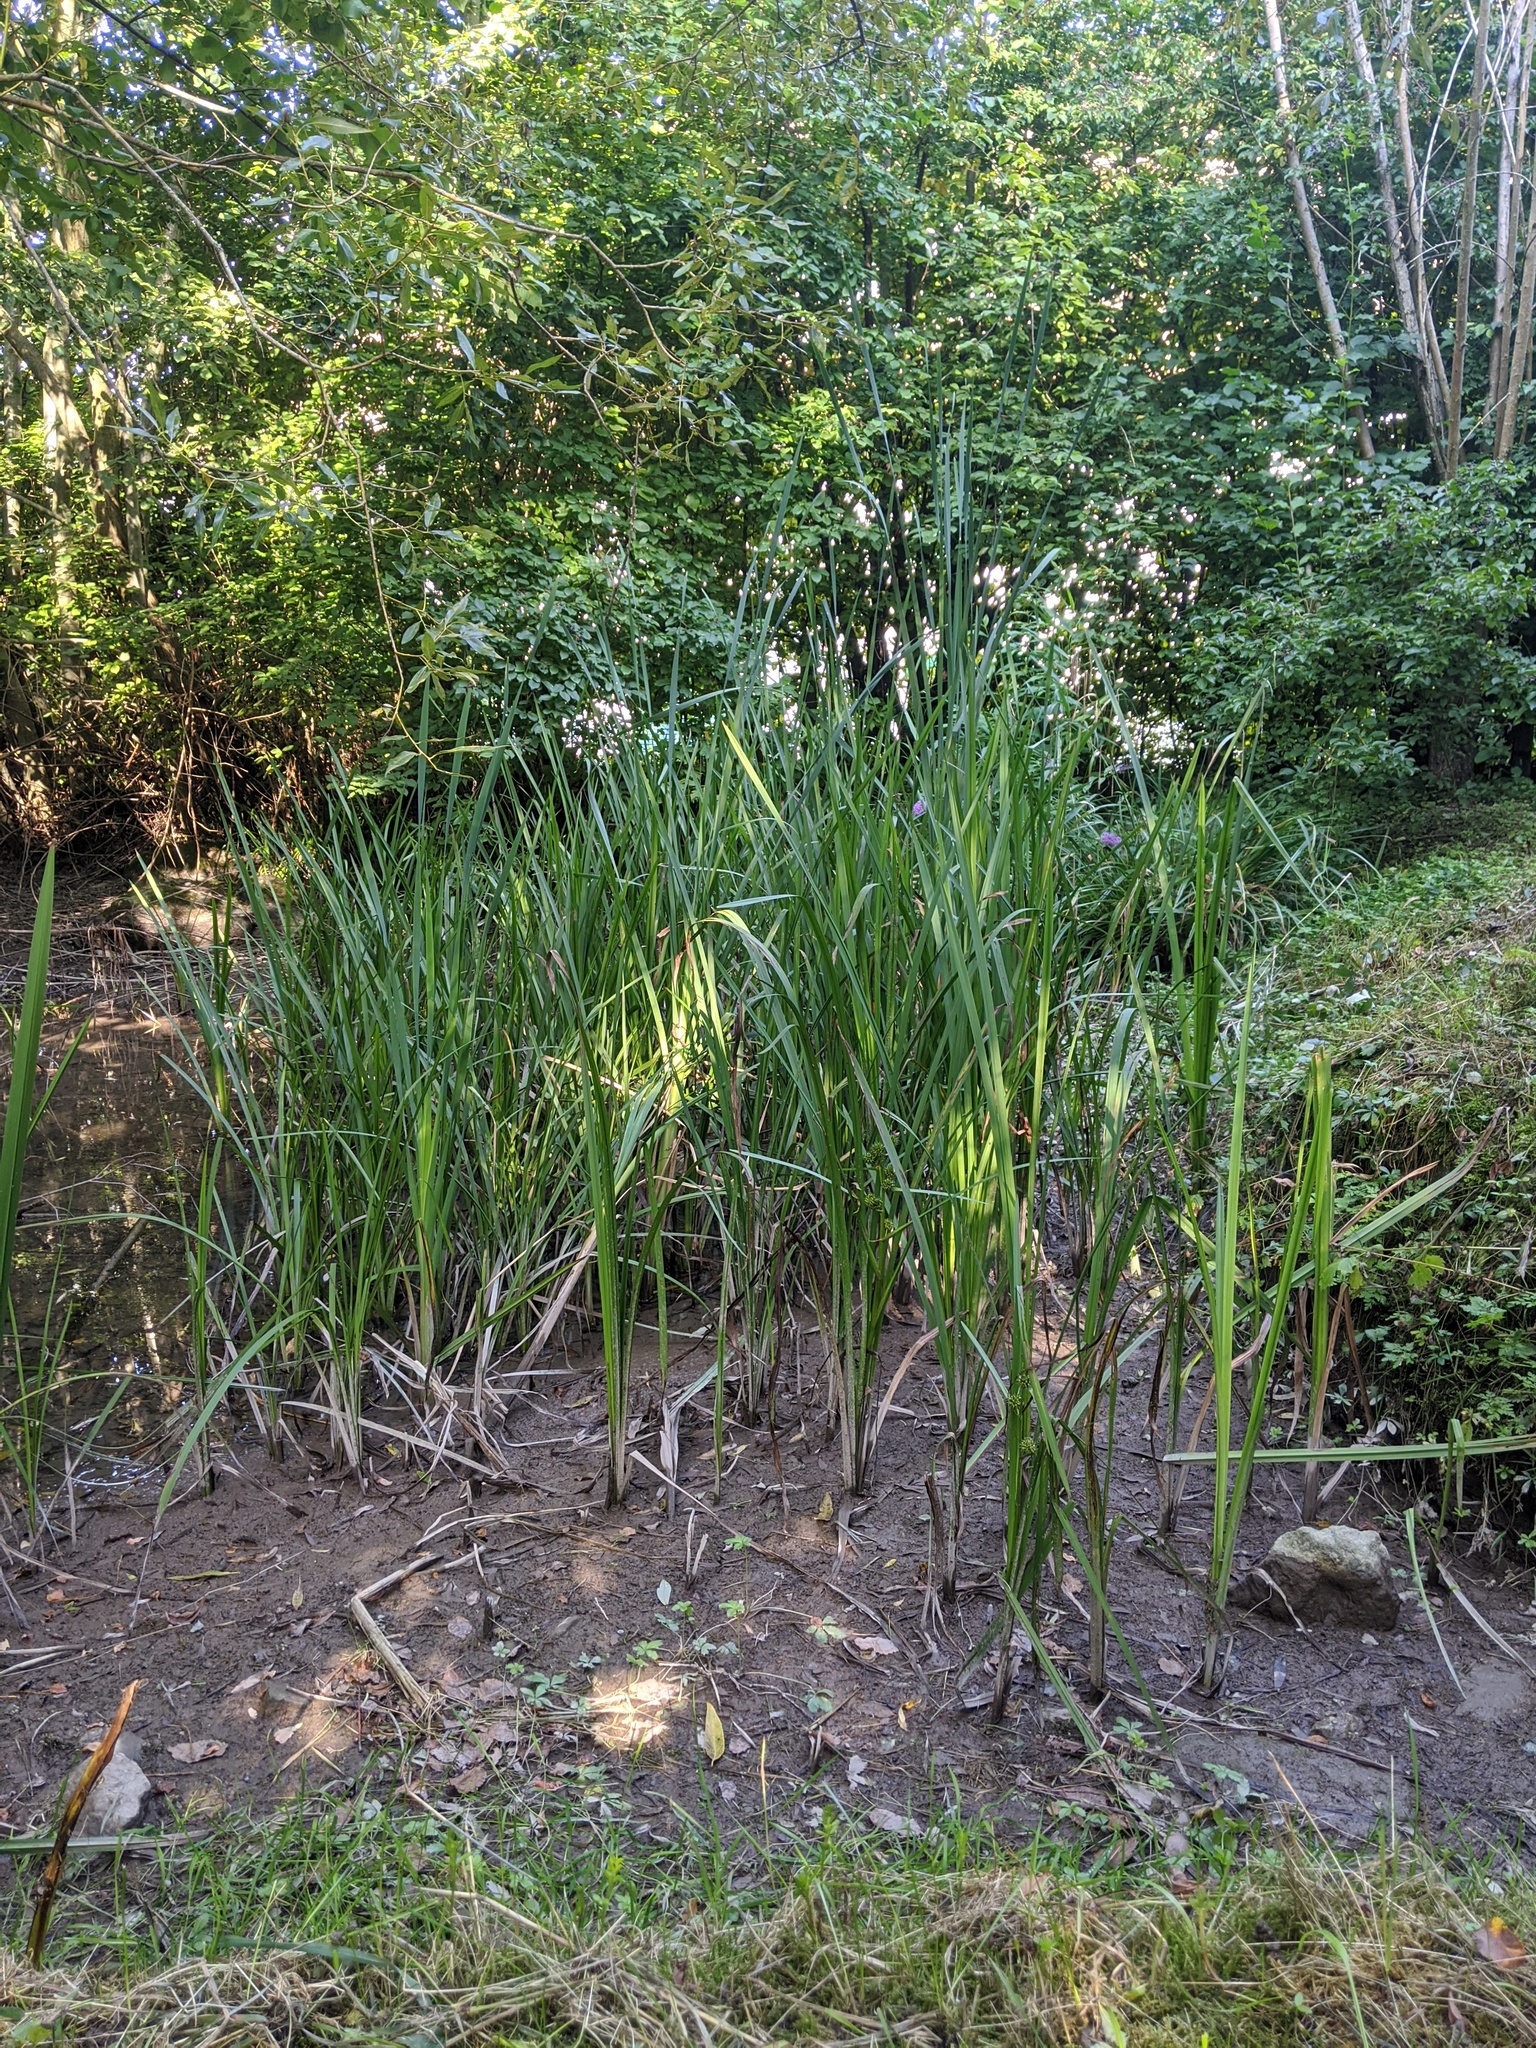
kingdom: Plantae
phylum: Tracheophyta
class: Liliopsida
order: Poales
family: Typhaceae
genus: Sparganium
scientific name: Sparganium erectum
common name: Branched bur-reed
